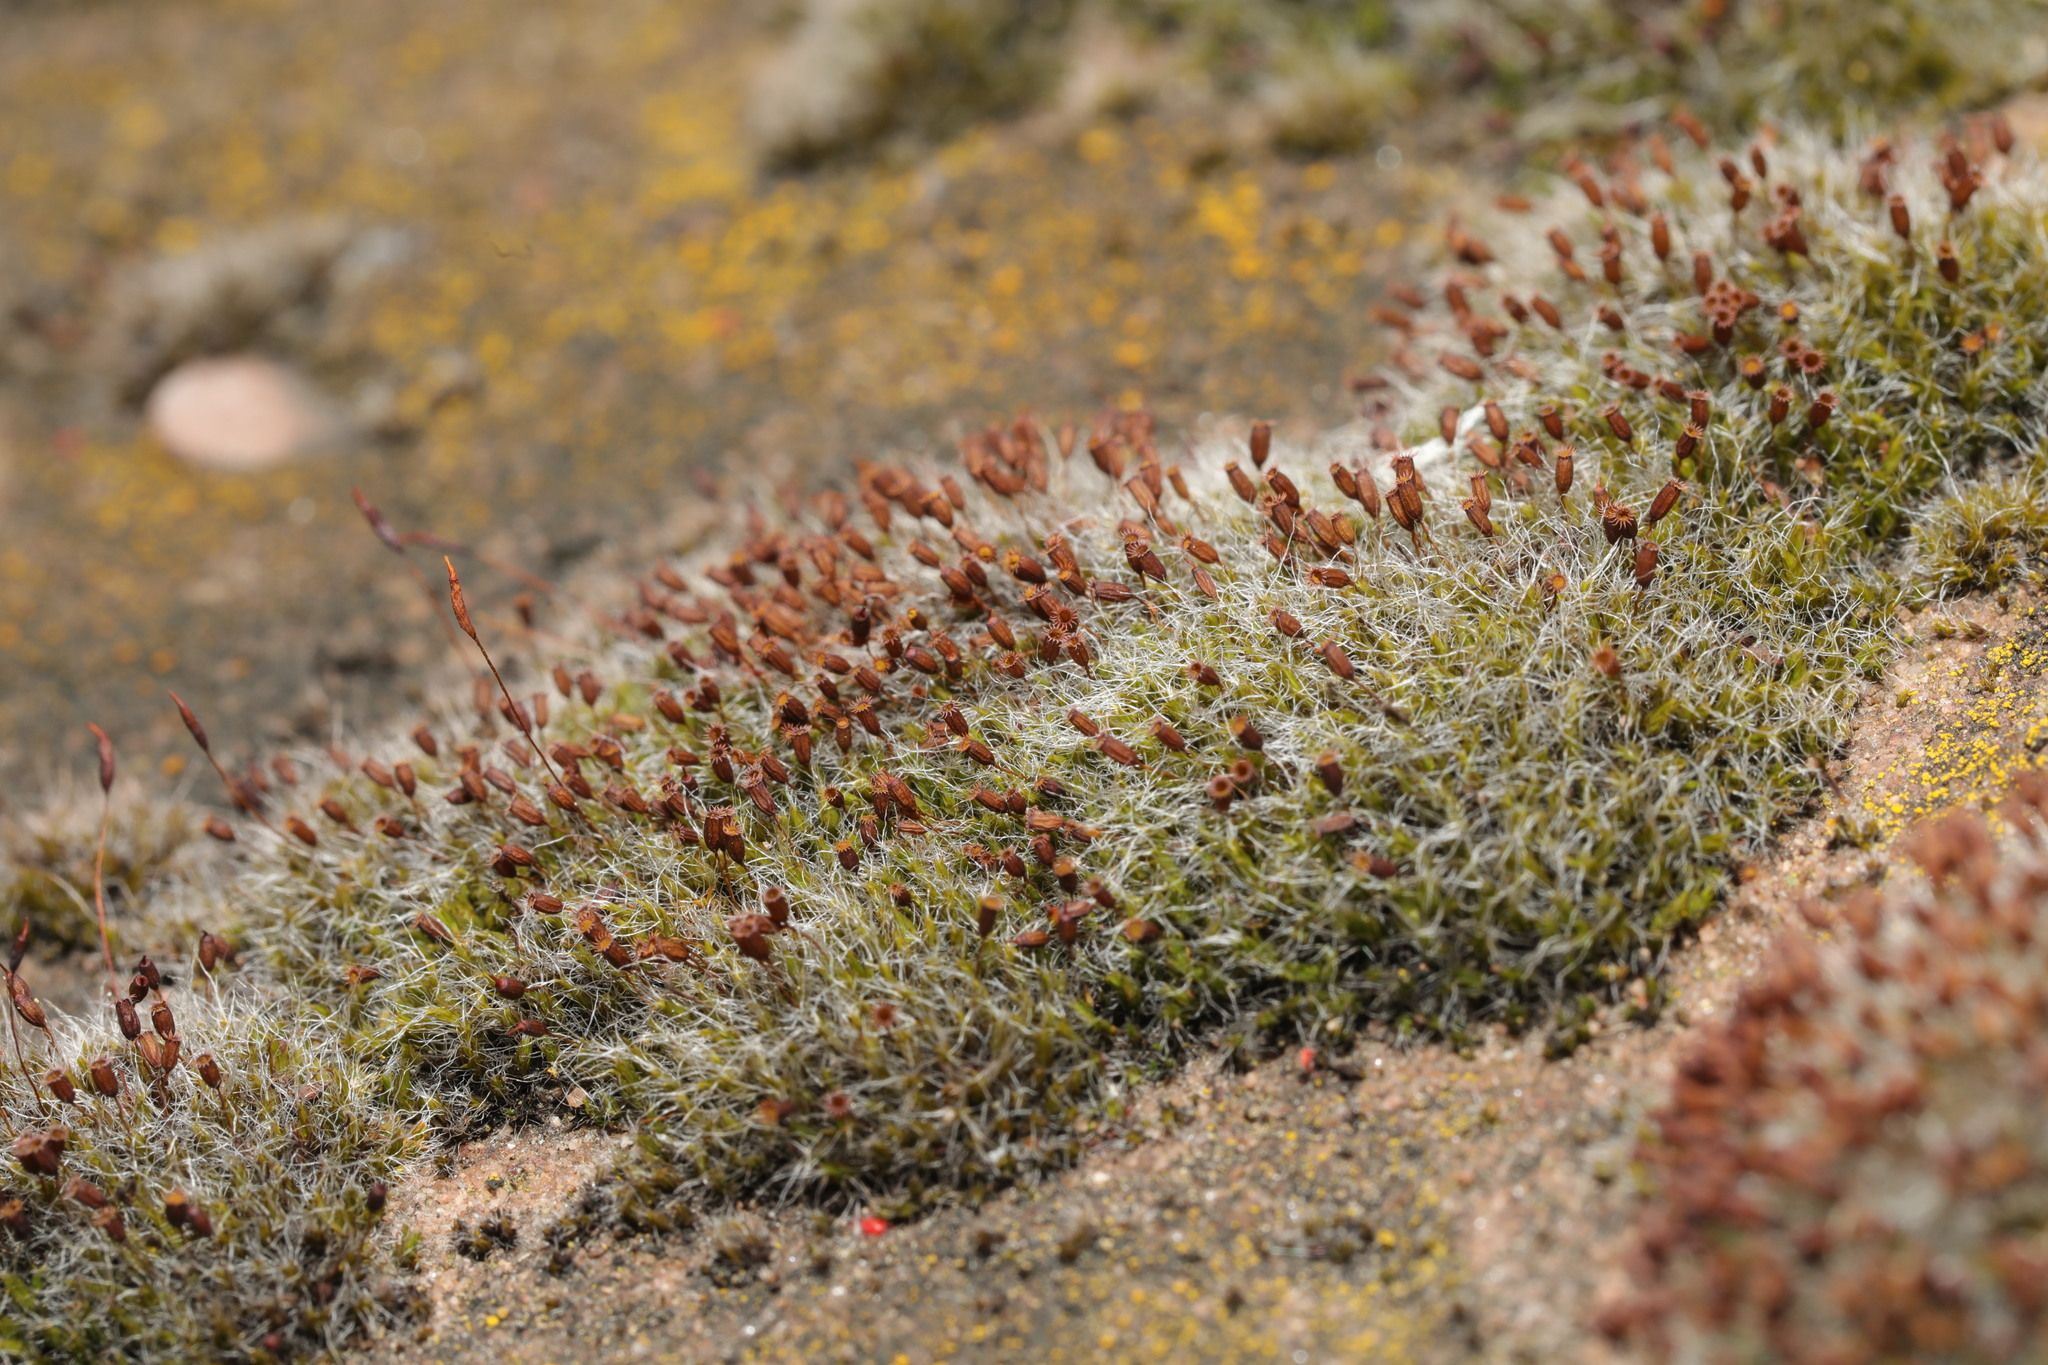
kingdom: Plantae
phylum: Bryophyta
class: Bryopsida
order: Grimmiales
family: Grimmiaceae
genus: Grimmia
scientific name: Grimmia pulvinata
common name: Grey-cushioned grimmia
